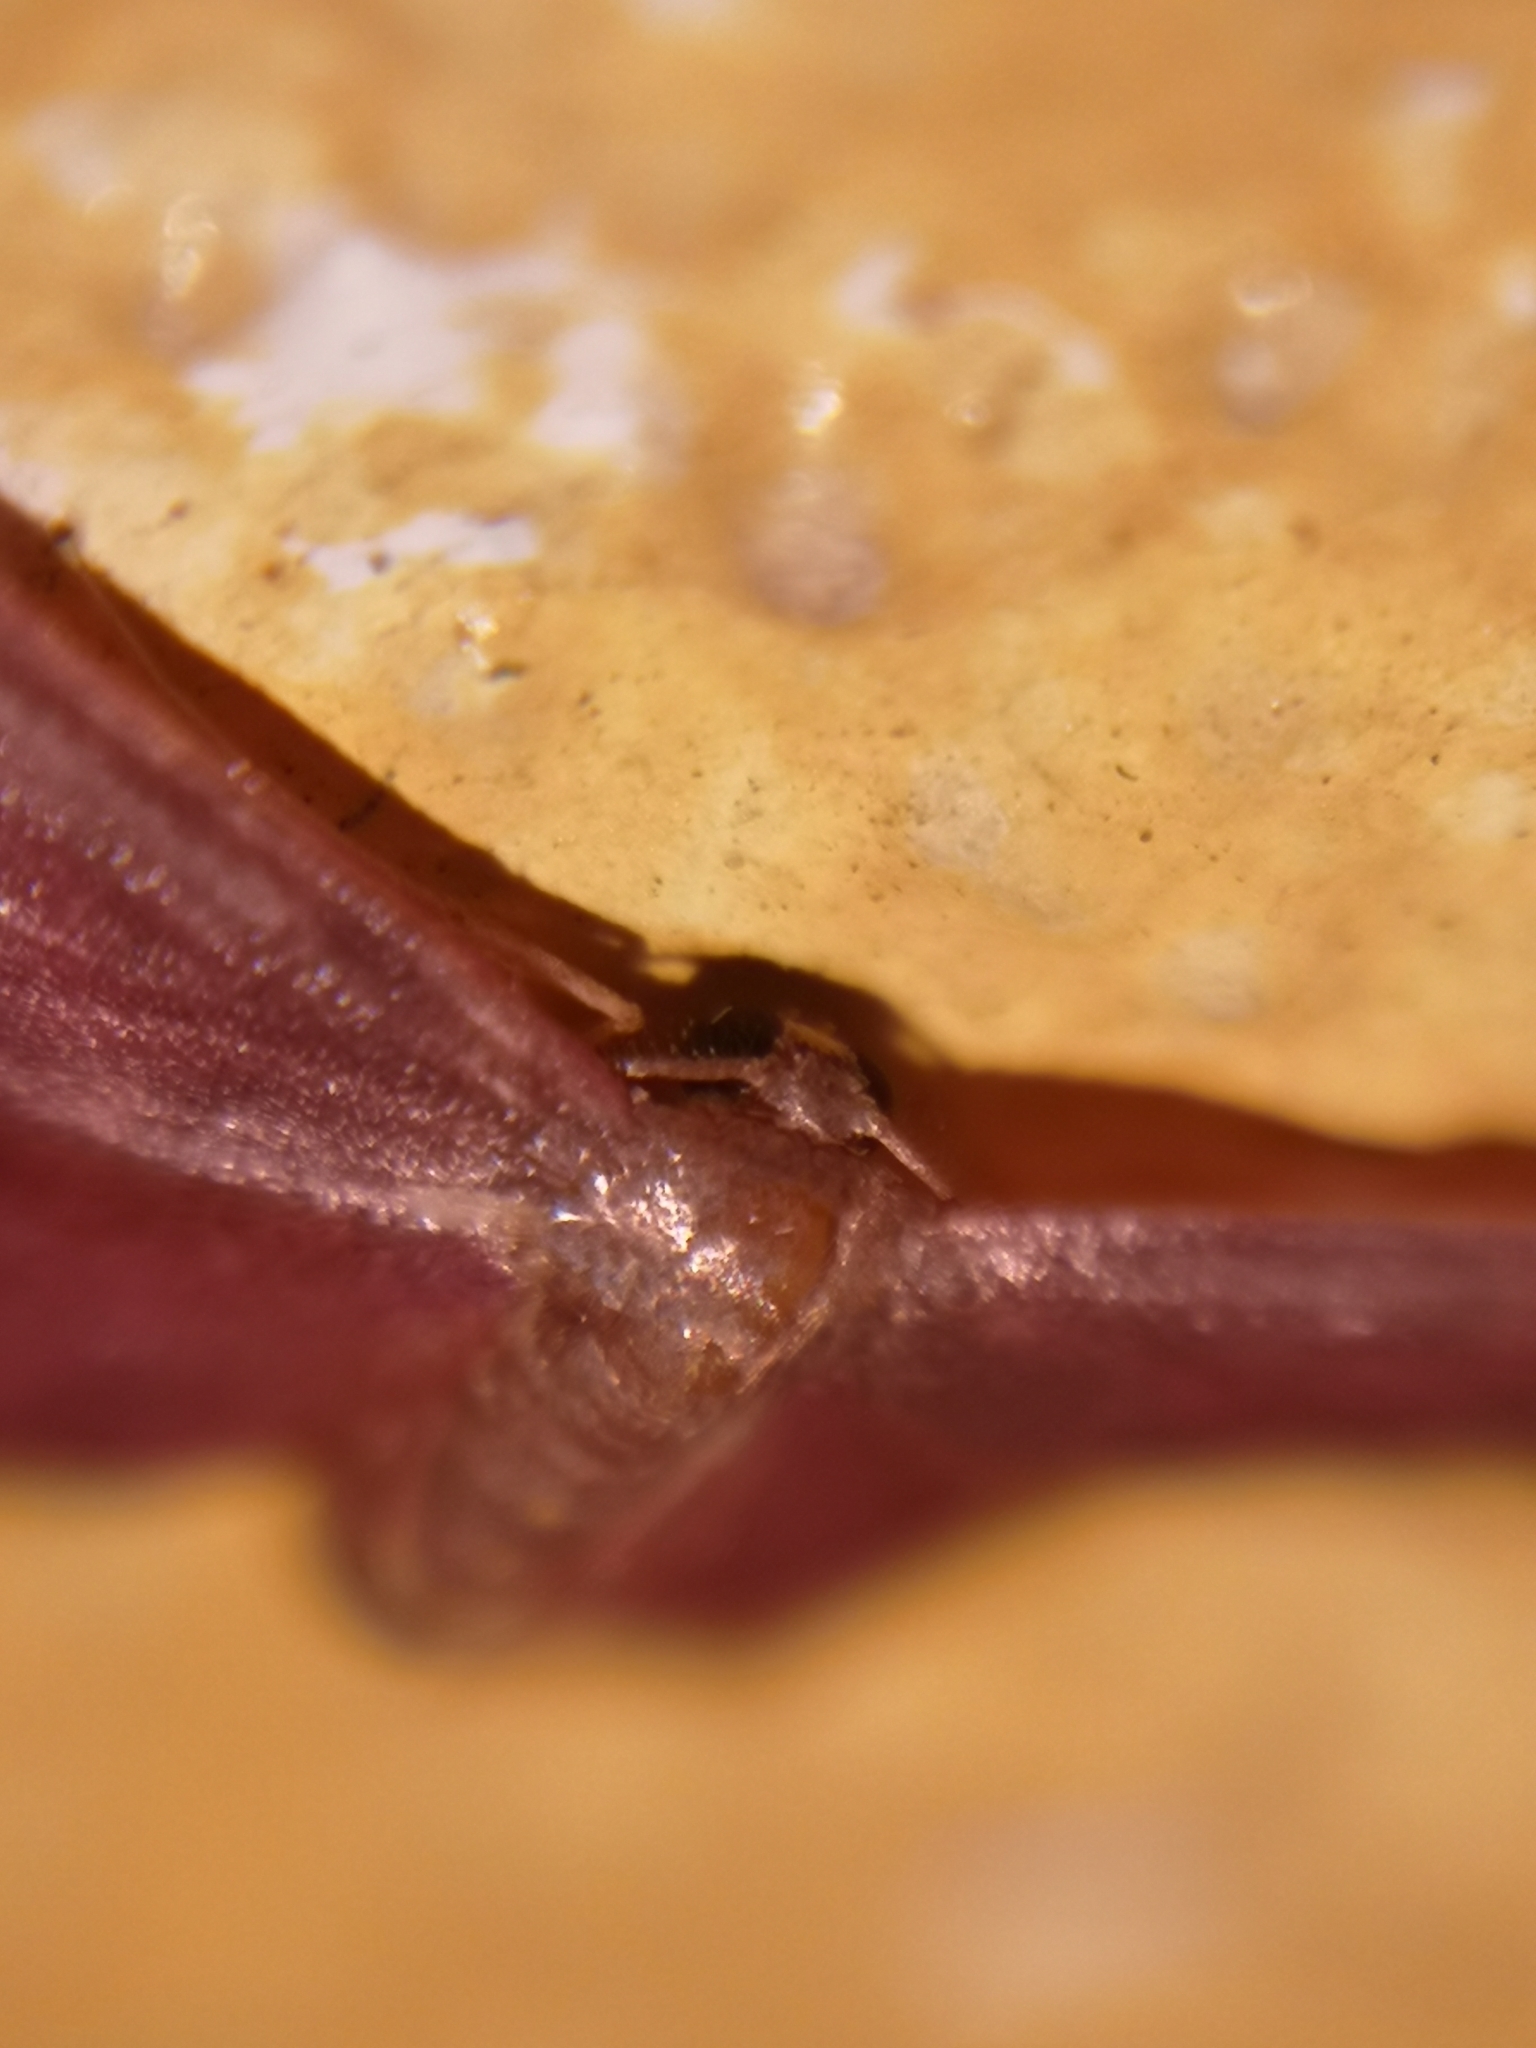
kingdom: Animalia
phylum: Arthropoda
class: Insecta
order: Lepidoptera
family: Geometridae
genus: Lophosis
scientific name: Lophosis labeculata
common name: Stained lophosis moth
